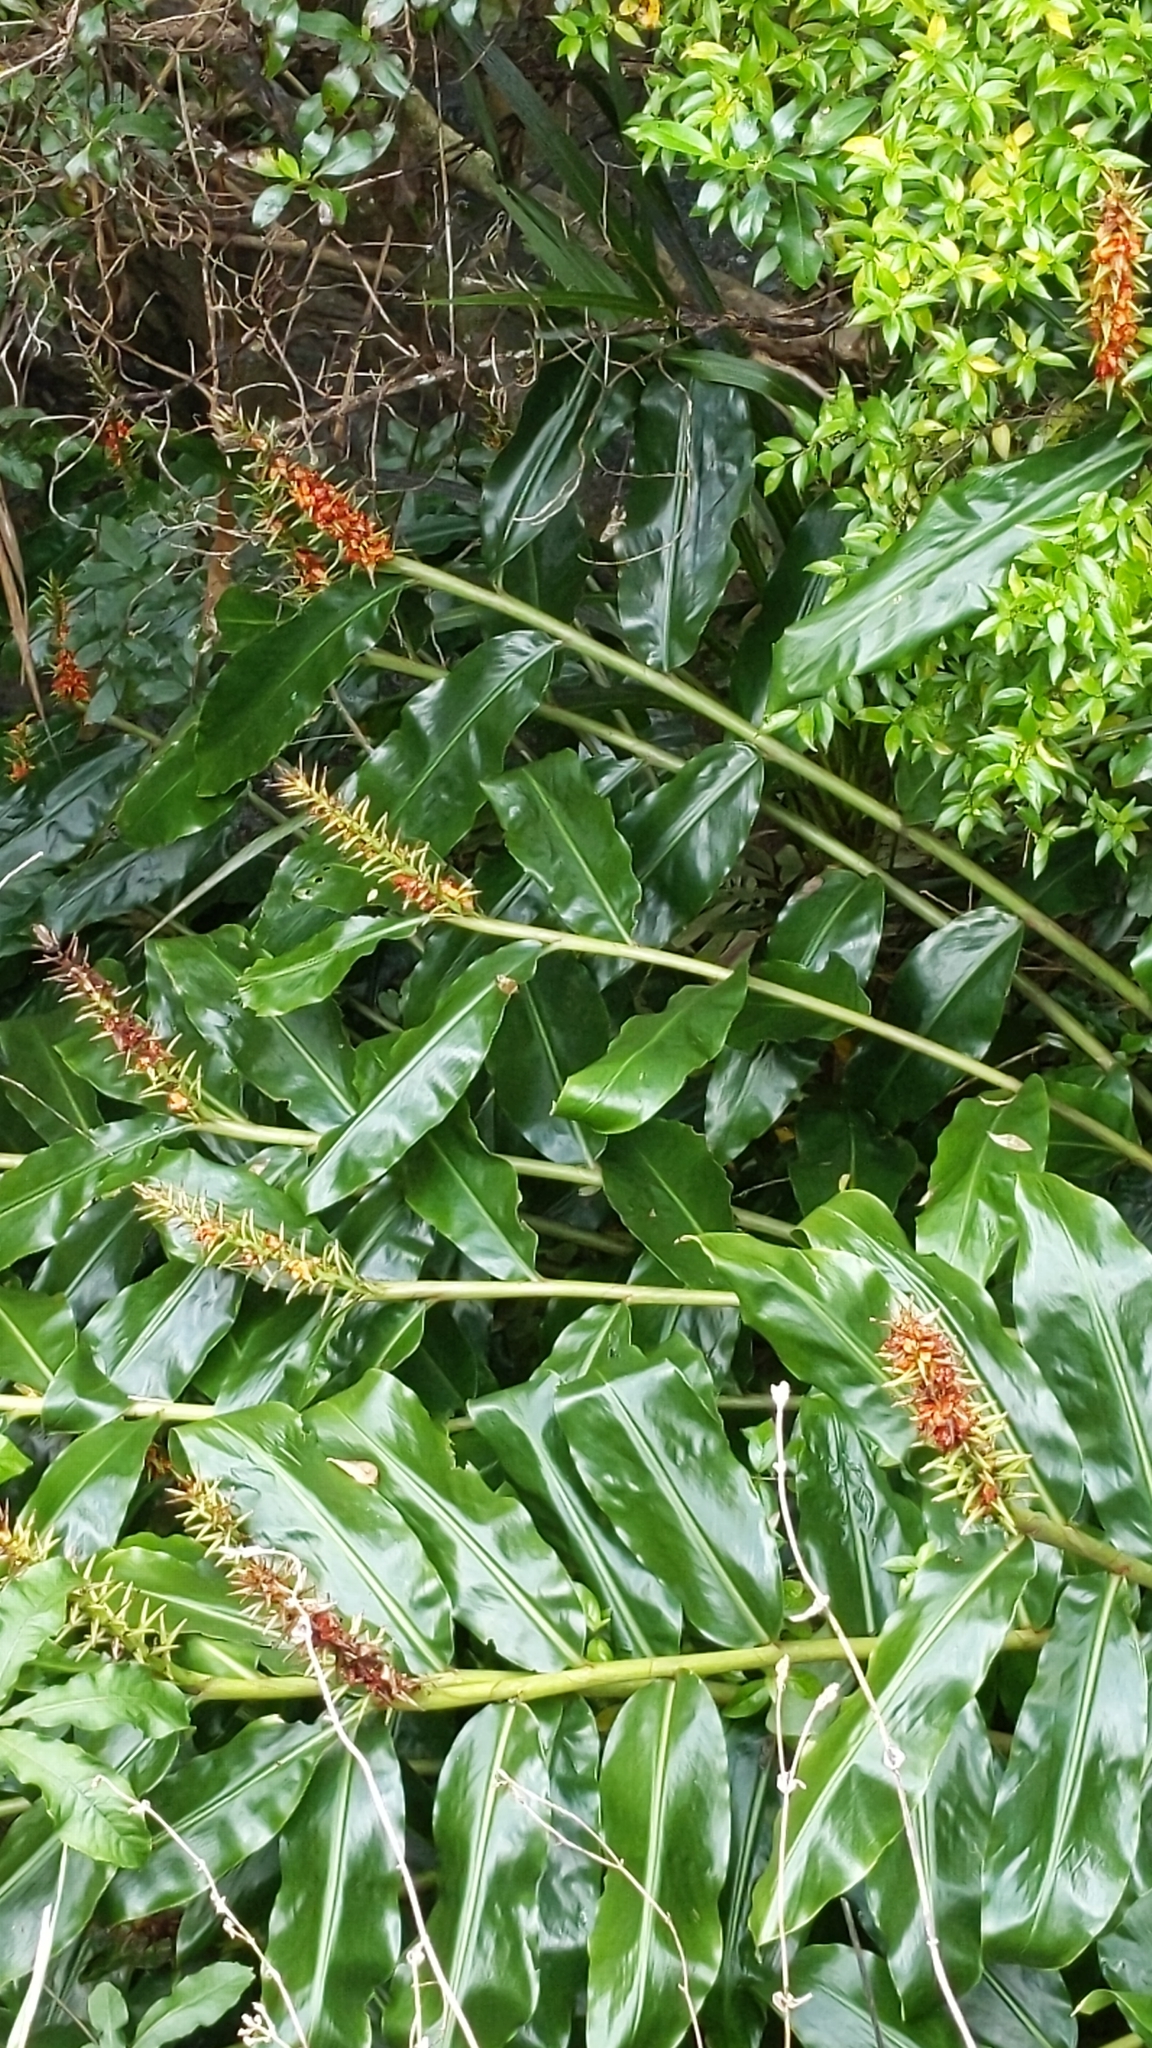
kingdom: Plantae
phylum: Tracheophyta
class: Liliopsida
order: Zingiberales
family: Zingiberaceae
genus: Hedychium
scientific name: Hedychium gardnerianum
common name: Himalayan ginger
